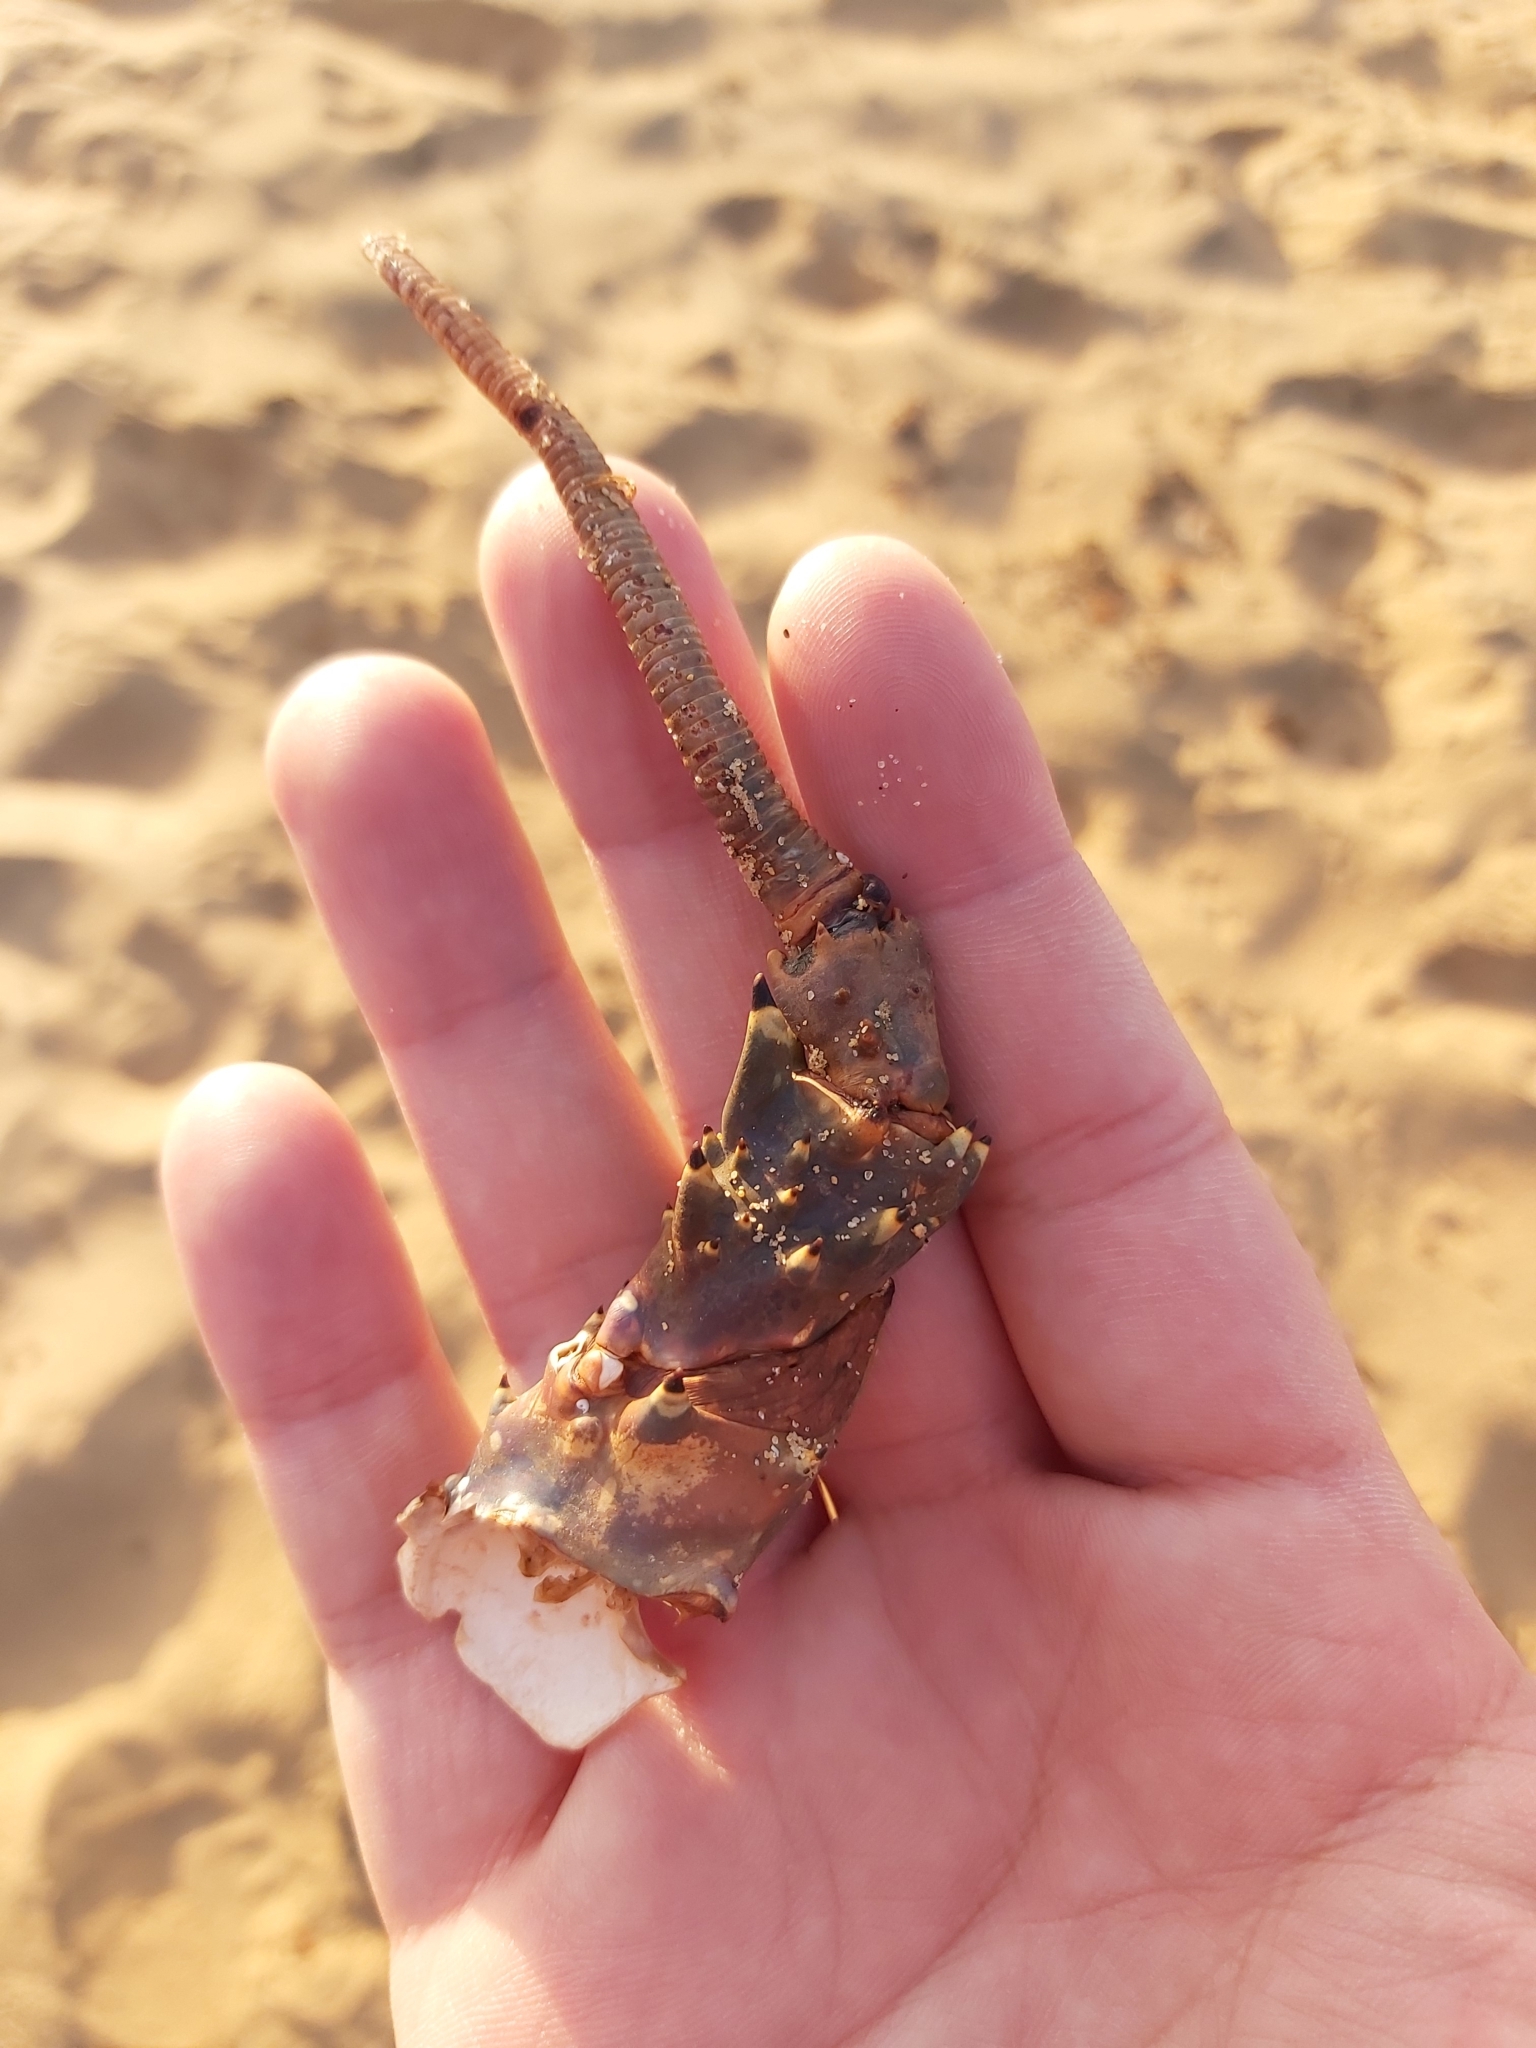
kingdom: Animalia
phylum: Arthropoda
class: Malacostraca
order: Decapoda
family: Palinuridae
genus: Sagmariasus
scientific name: Sagmariasus verreauxi
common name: Green rock lobster
